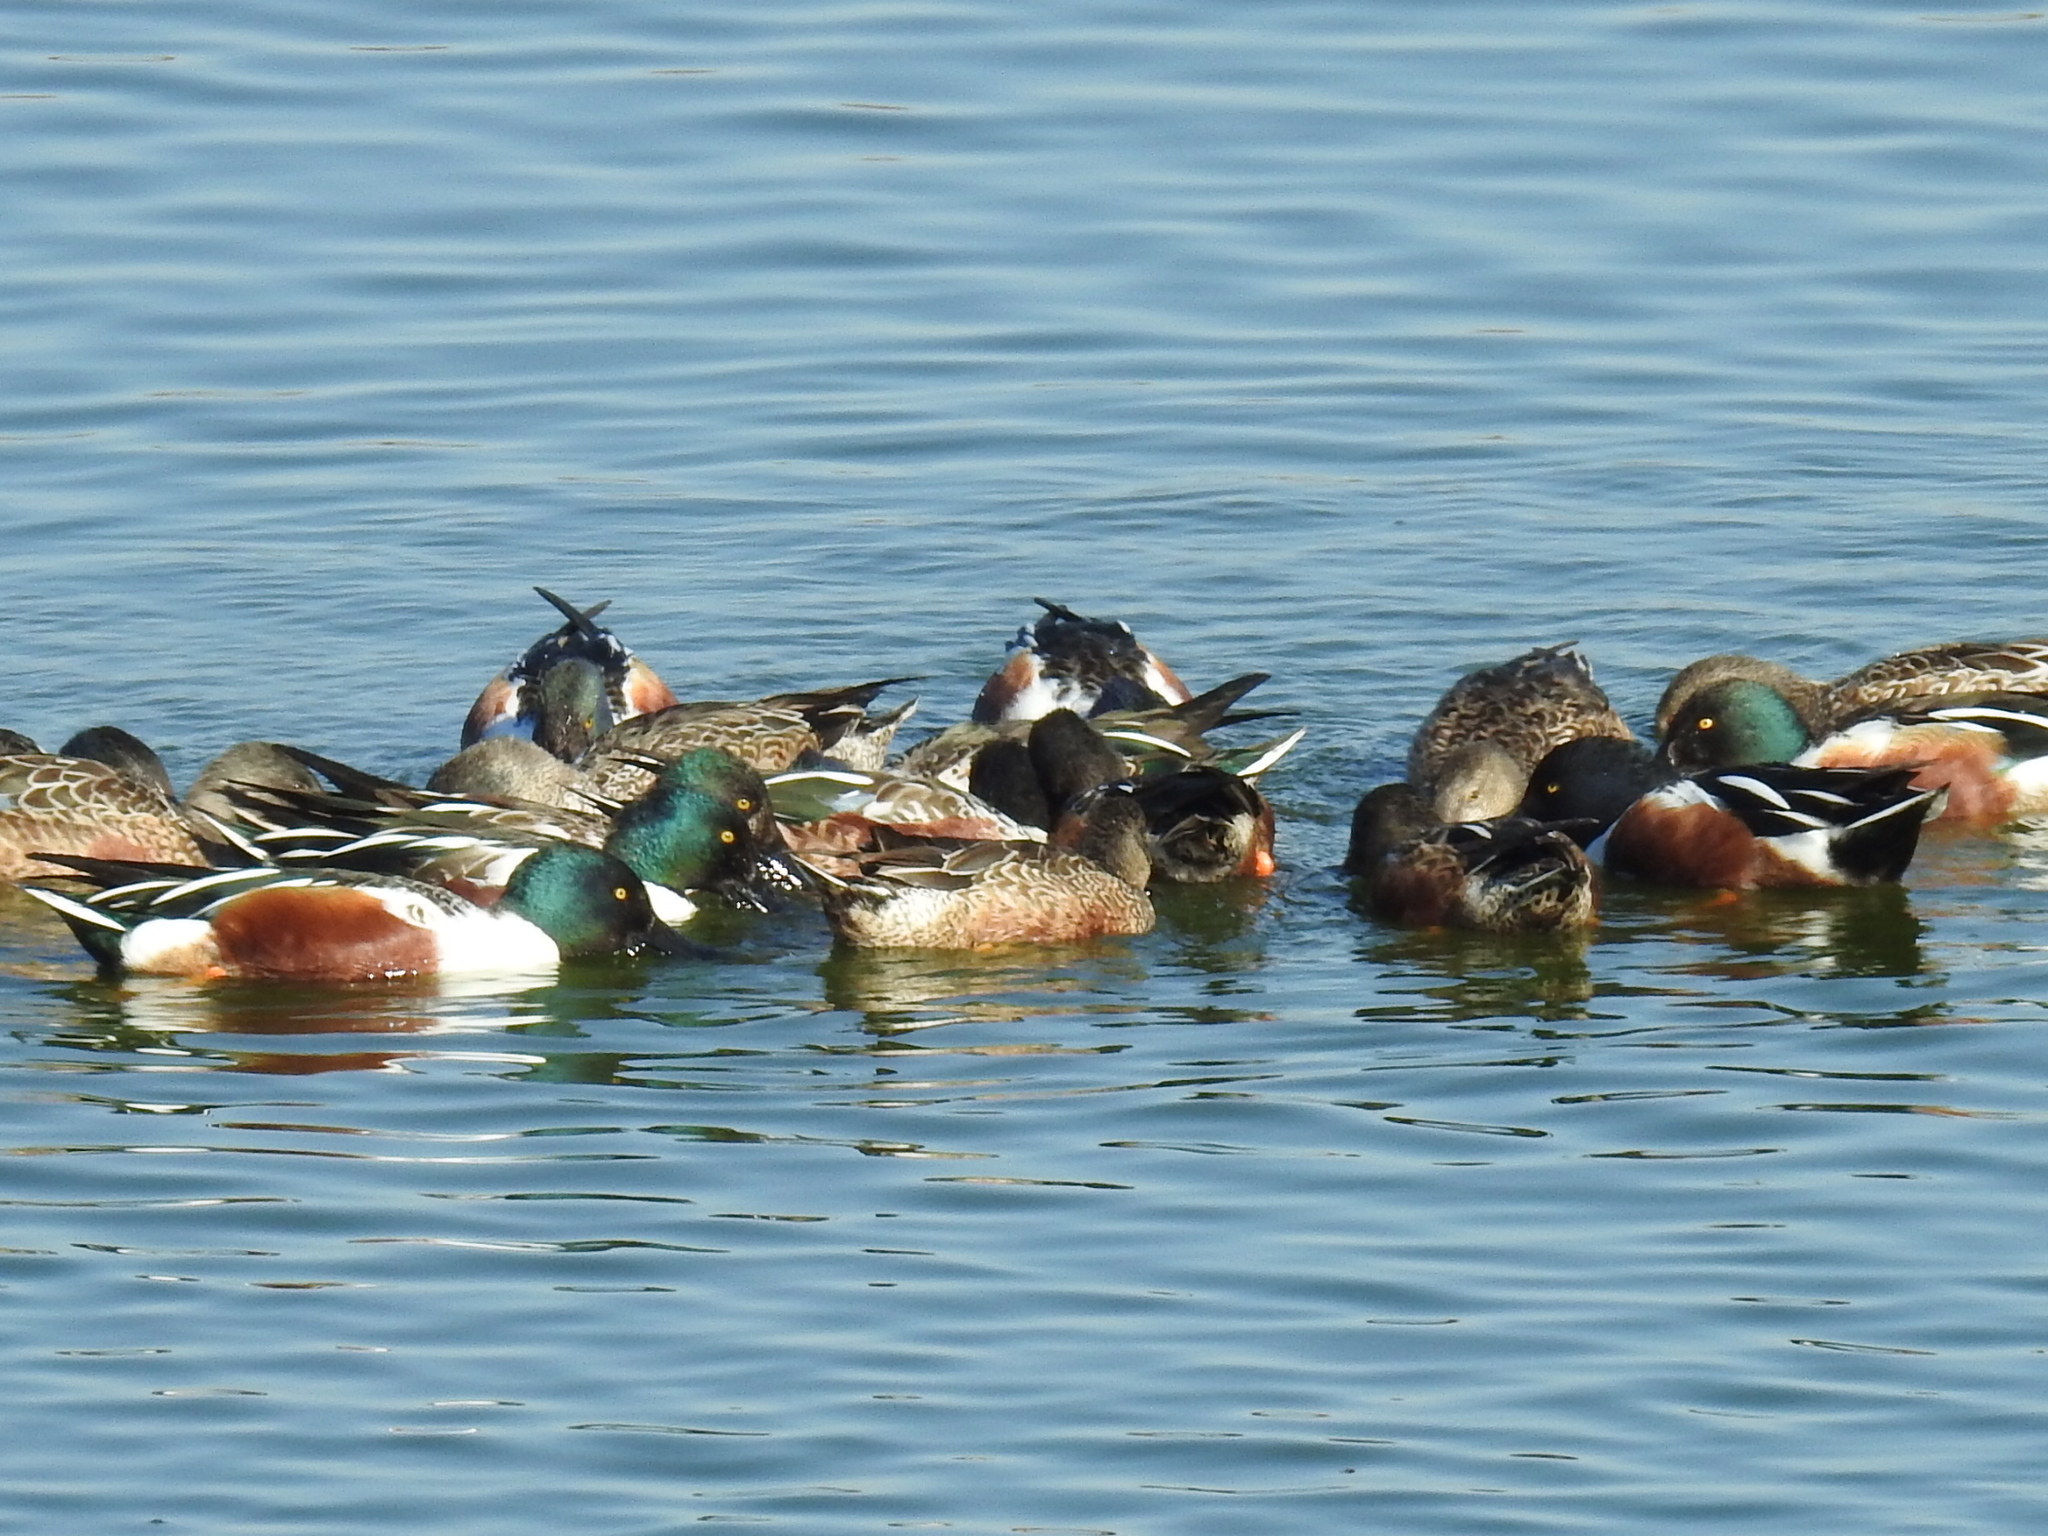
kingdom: Animalia
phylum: Chordata
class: Aves
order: Anseriformes
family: Anatidae
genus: Spatula
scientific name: Spatula clypeata
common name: Northern shoveler
